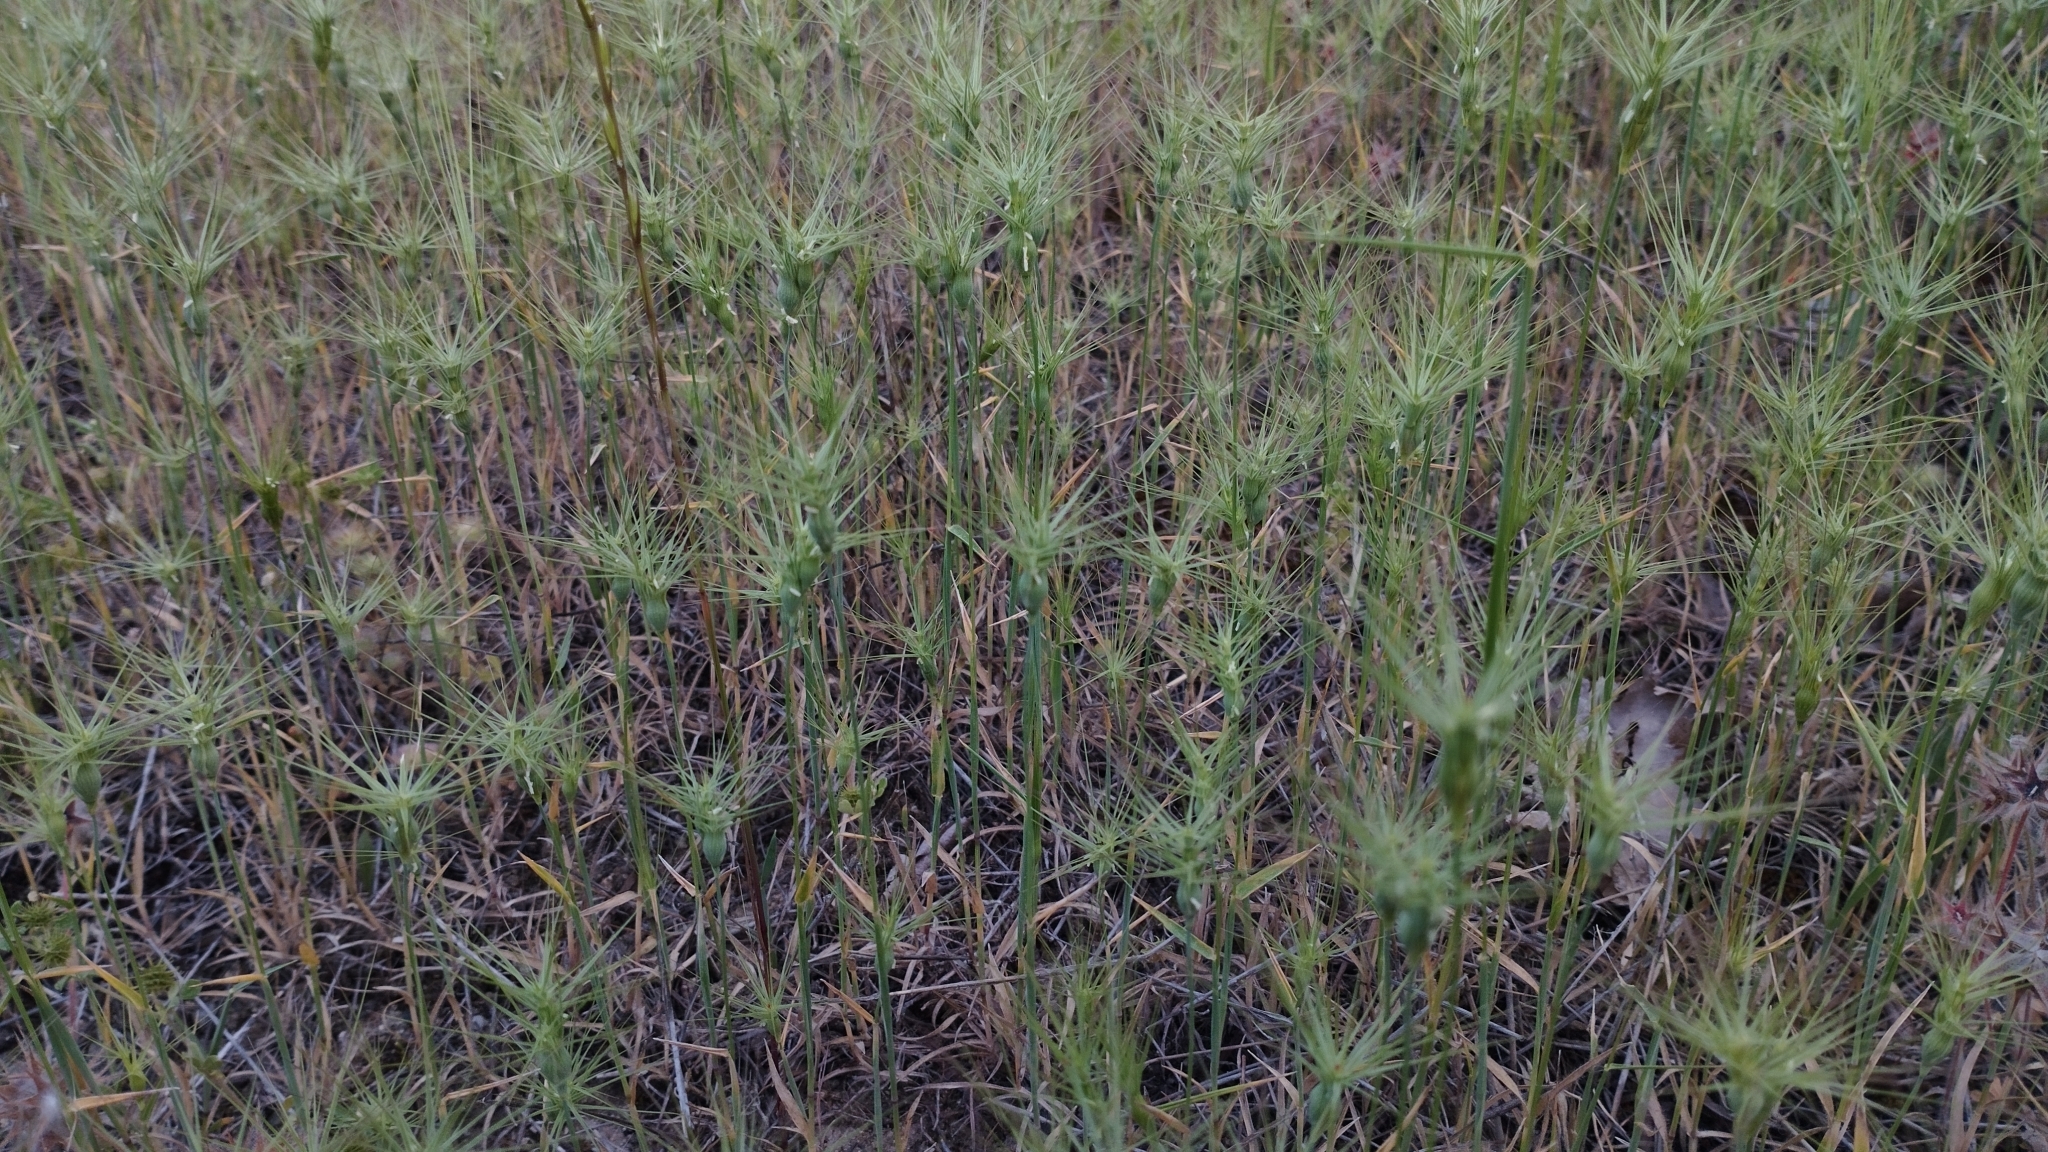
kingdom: Plantae
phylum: Tracheophyta
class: Liliopsida
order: Poales
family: Poaceae
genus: Aegilops
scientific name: Aegilops geniculata
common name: Ovate goat grass
